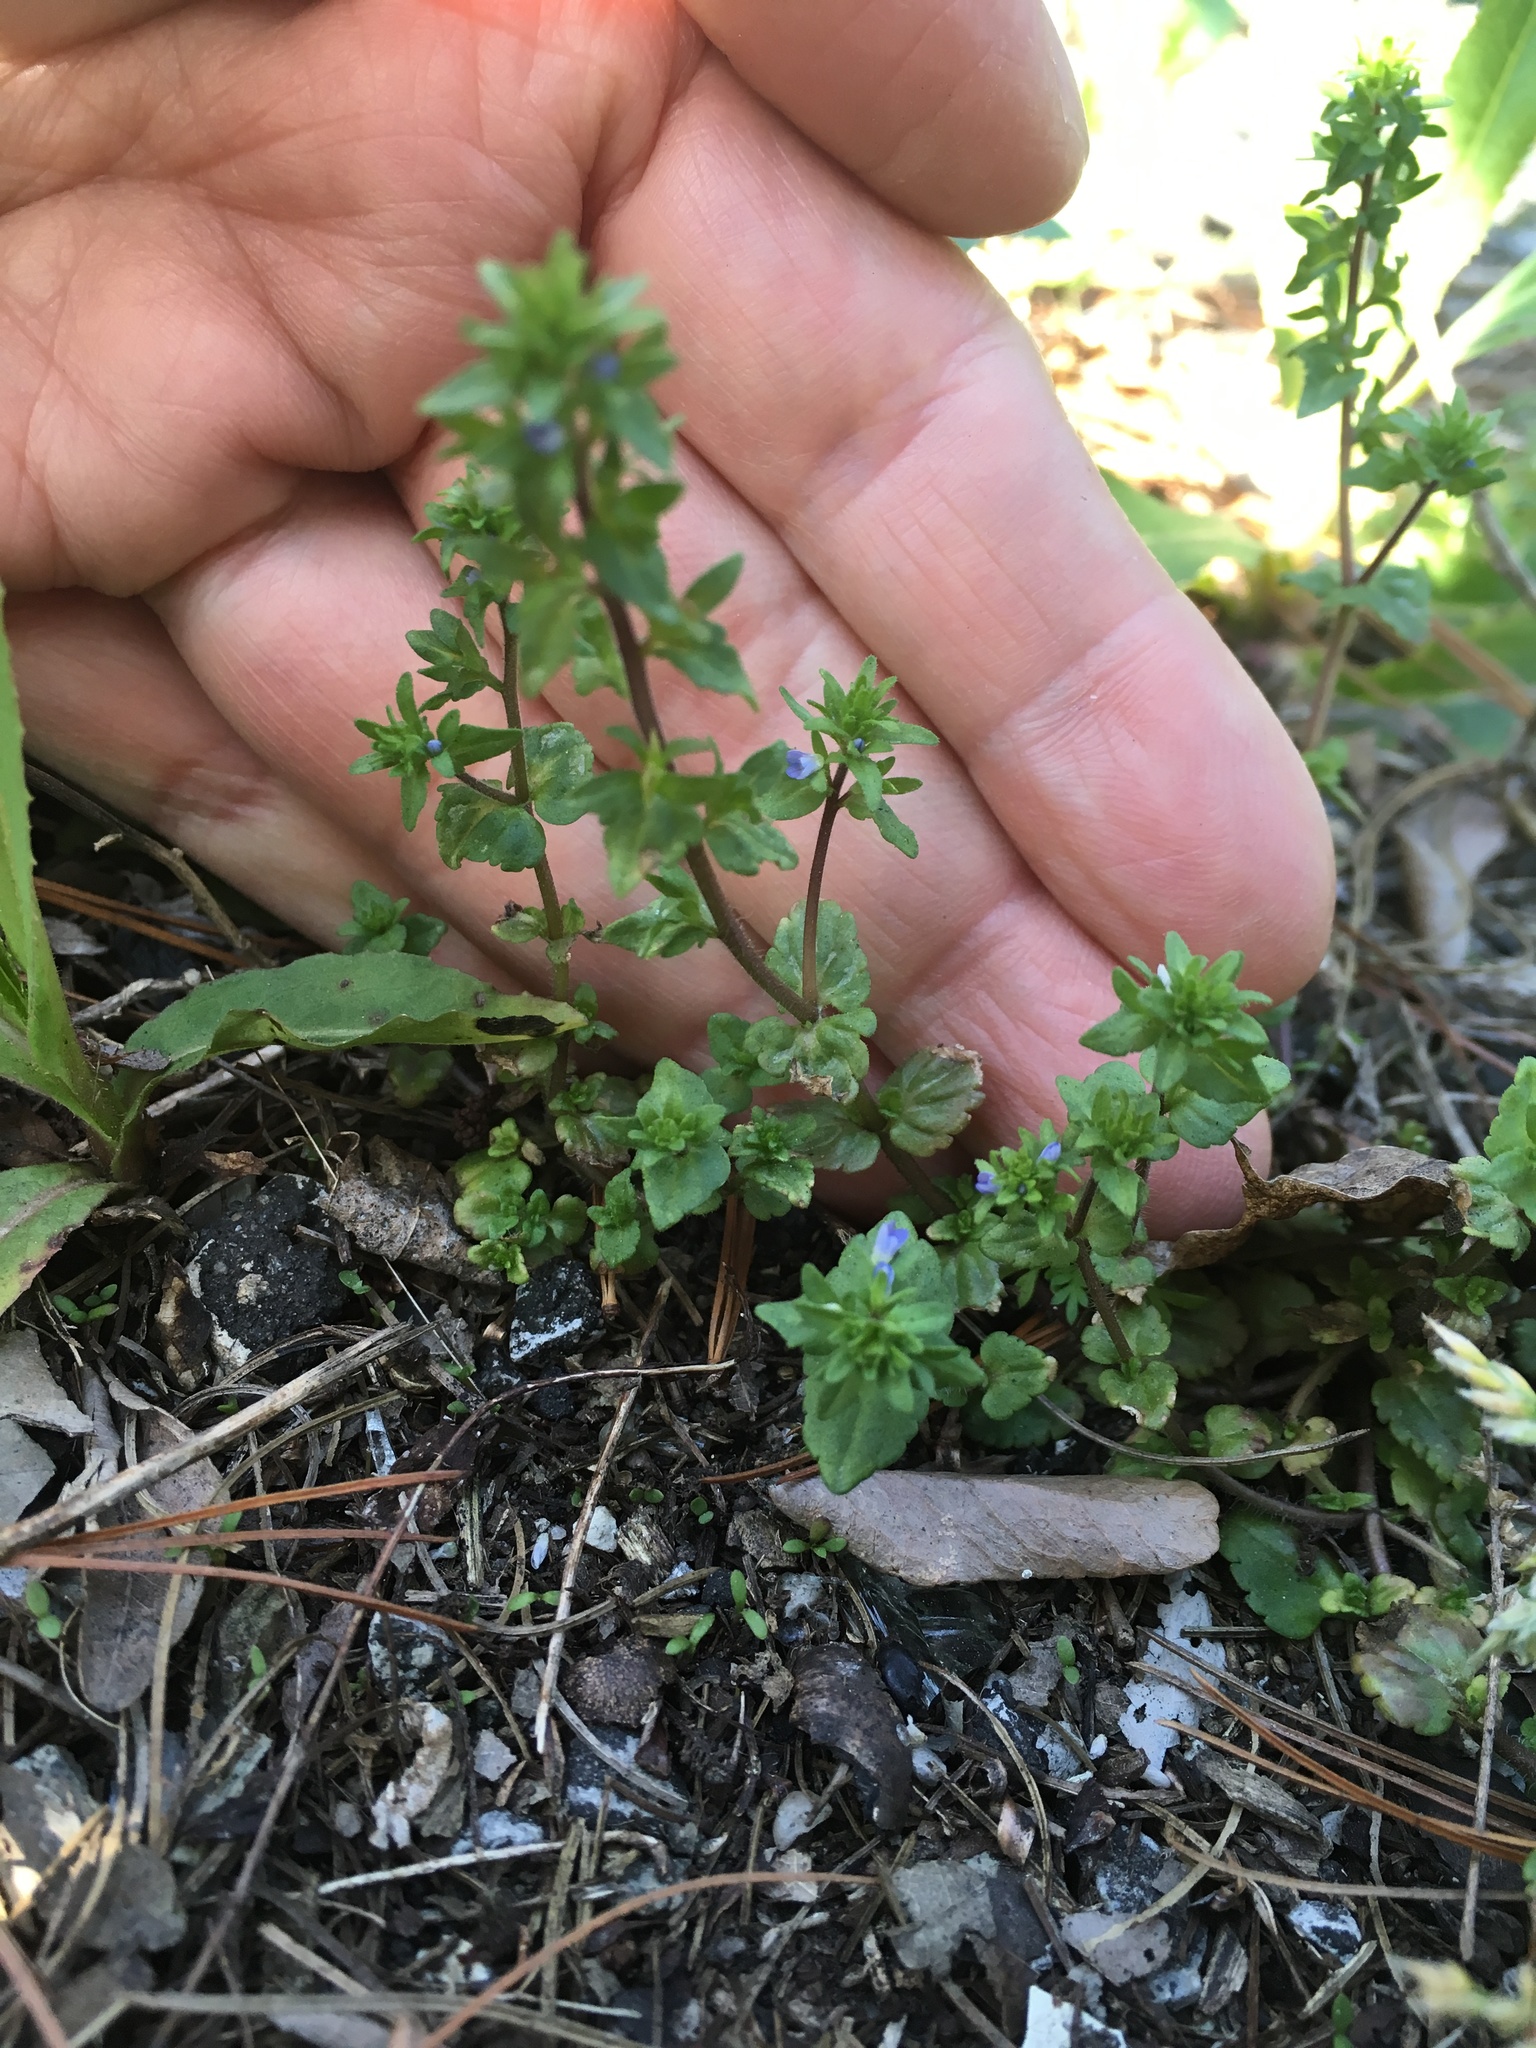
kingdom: Plantae
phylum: Tracheophyta
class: Magnoliopsida
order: Lamiales
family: Plantaginaceae
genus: Veronica
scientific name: Veronica arvensis
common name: Corn speedwell
